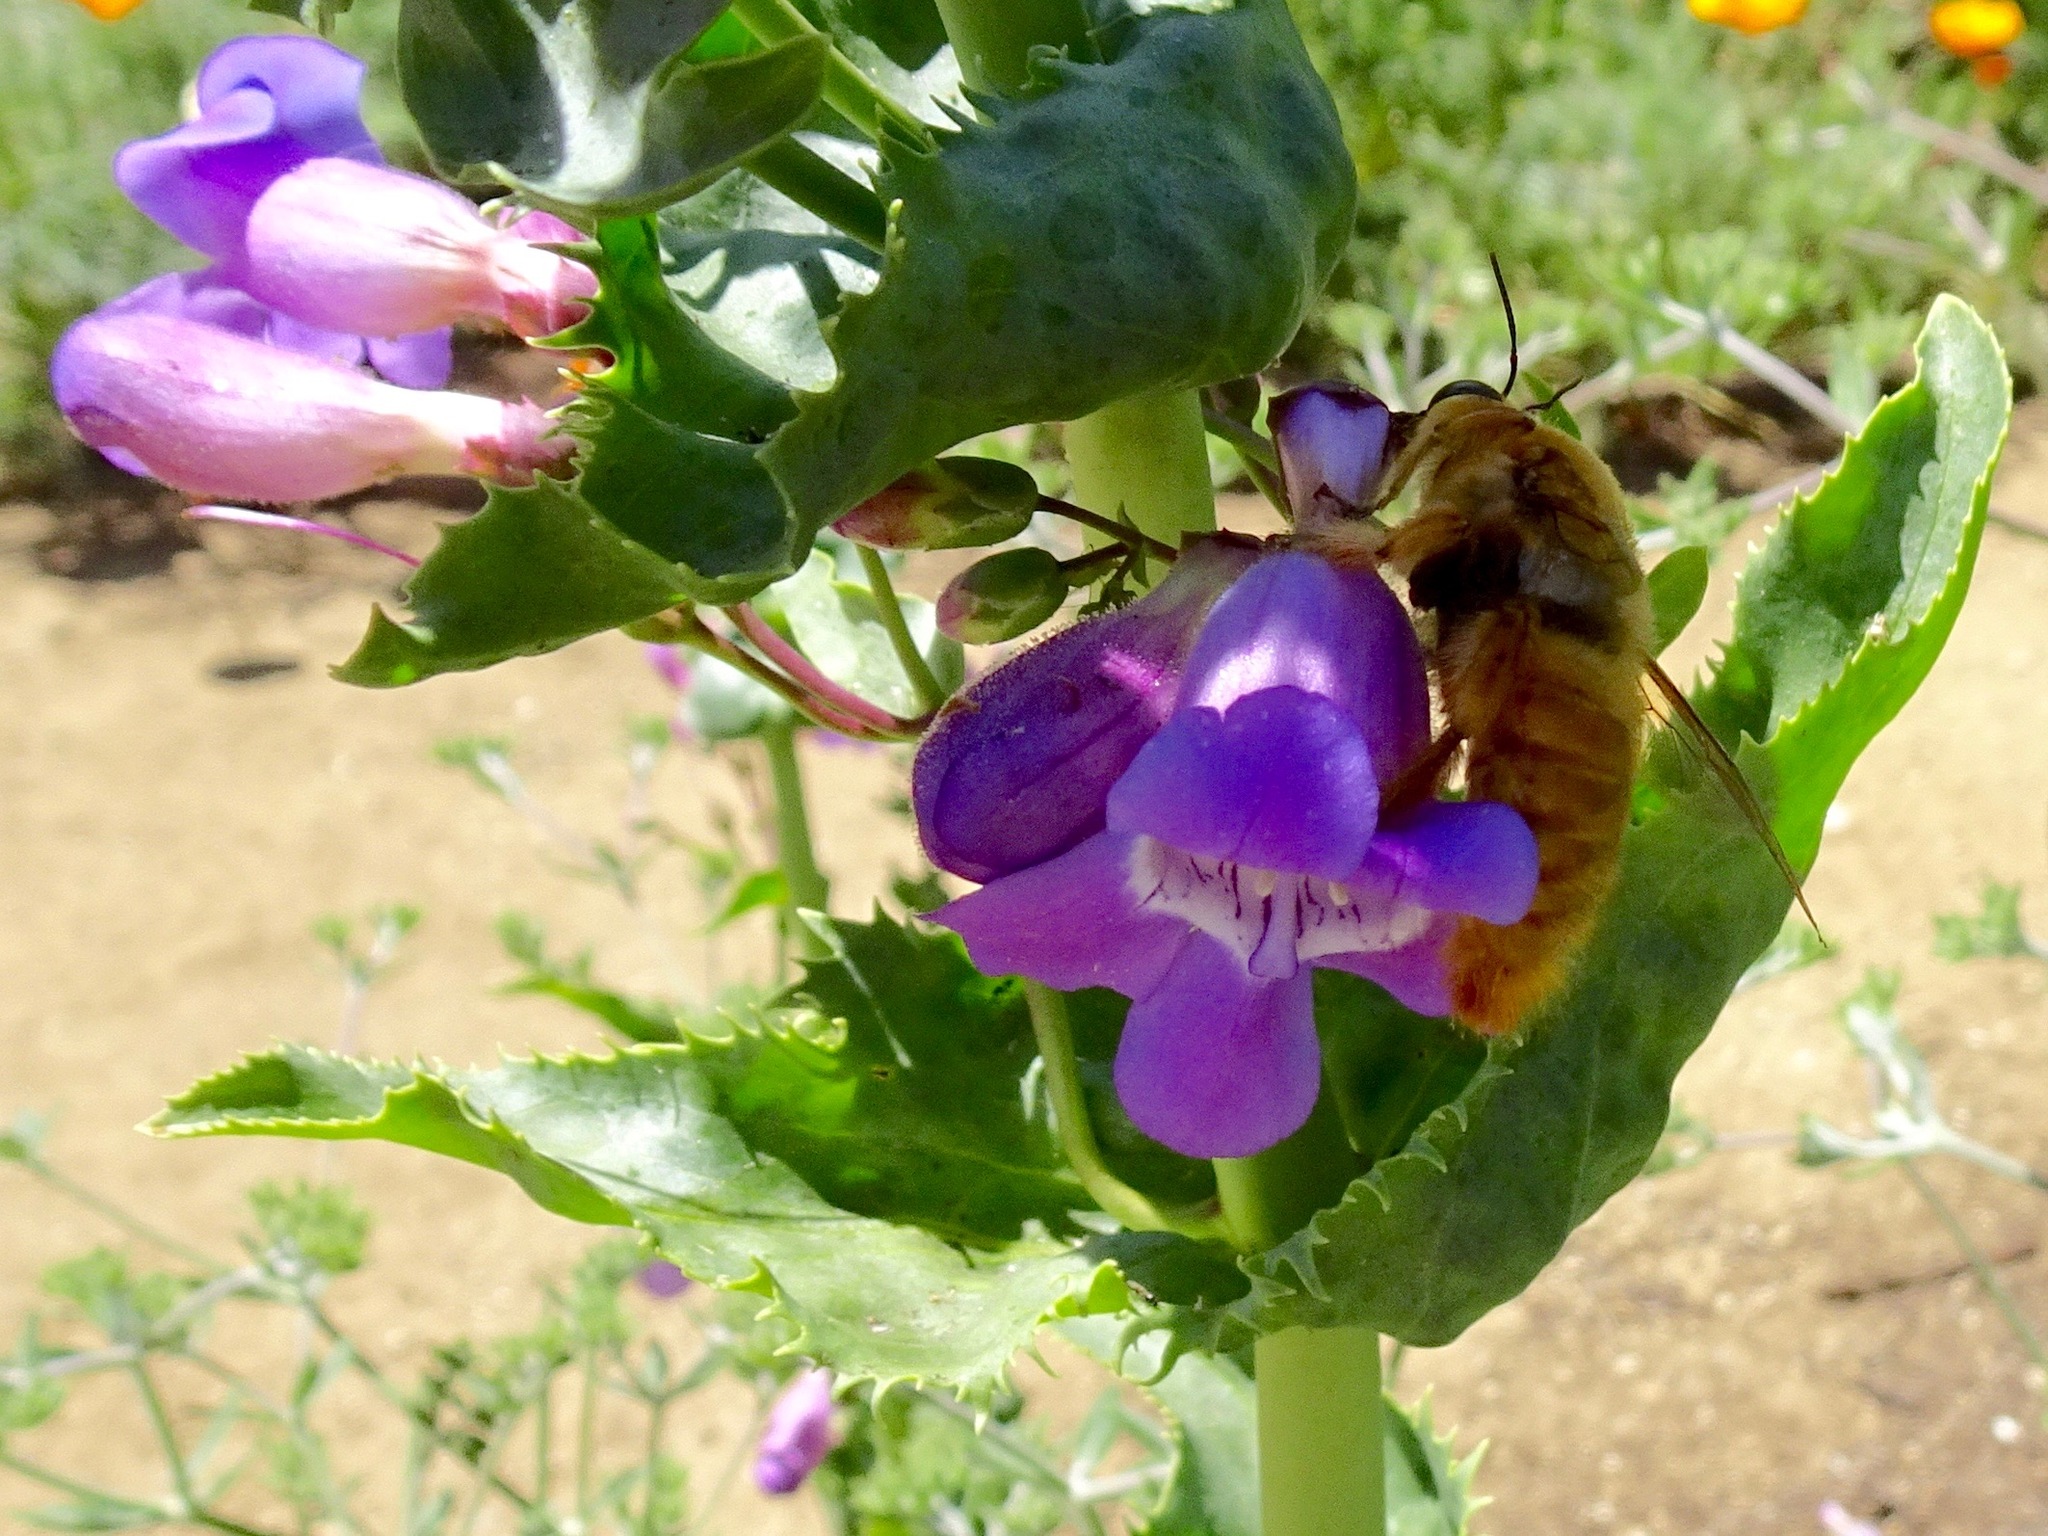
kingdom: Animalia
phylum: Arthropoda
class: Insecta
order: Hymenoptera
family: Apidae
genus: Xylocopa
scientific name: Xylocopa sonorina
